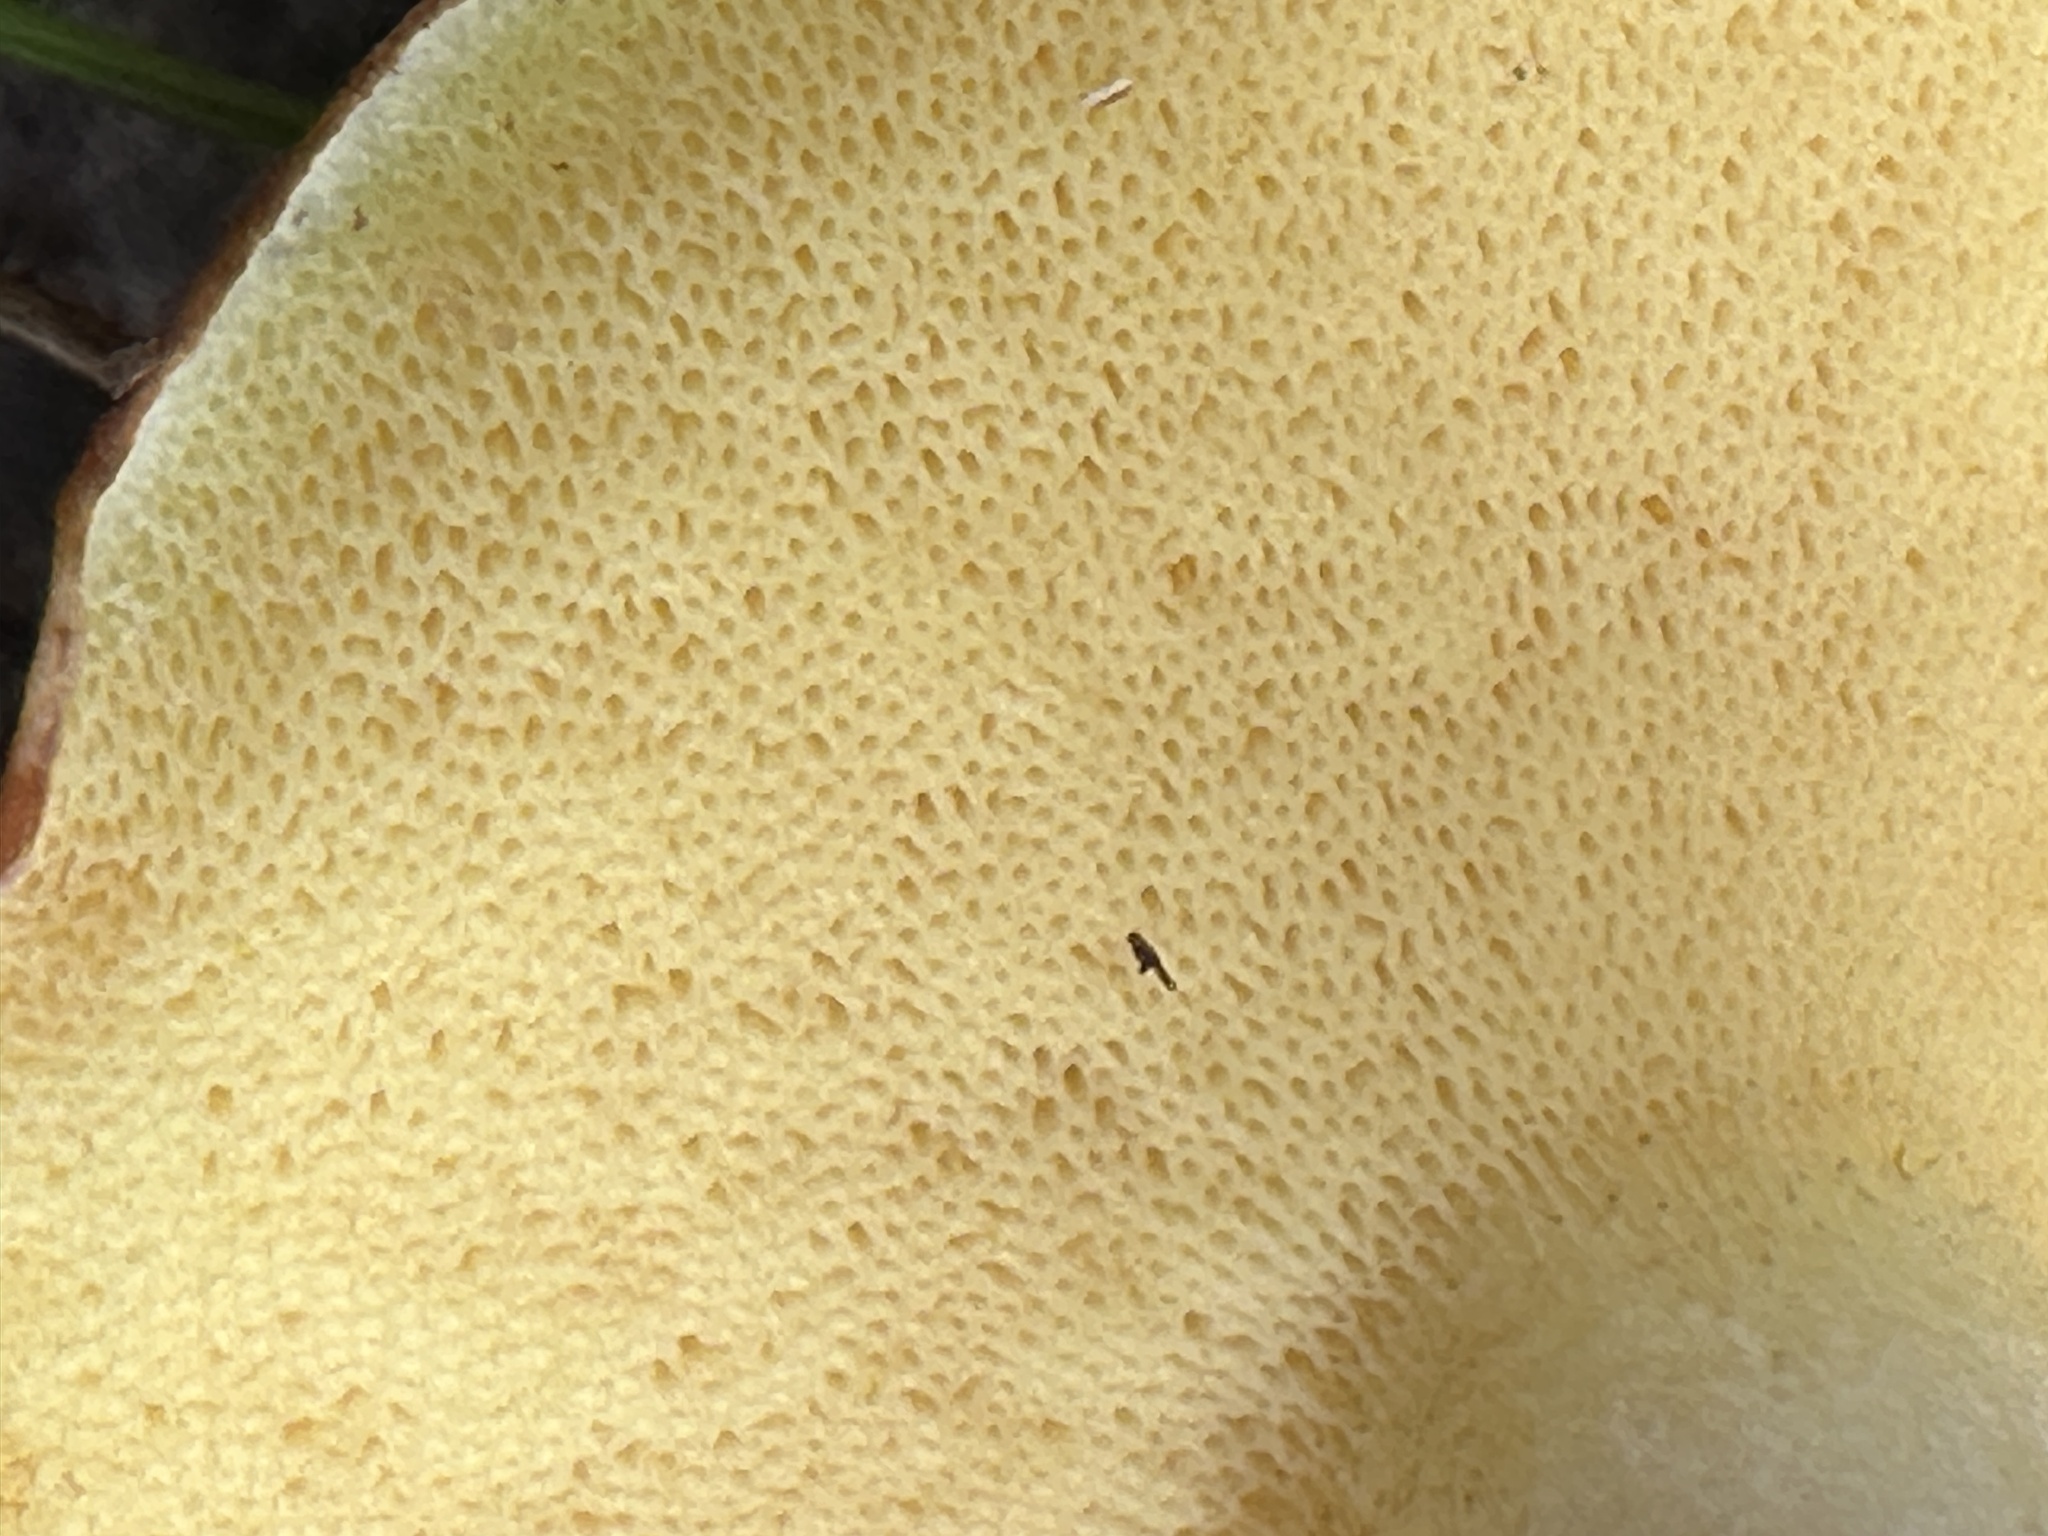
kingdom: Fungi
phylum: Basidiomycota
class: Agaricomycetes
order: Boletales
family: Suillaceae
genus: Fuscoboletinus
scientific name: Fuscoboletinus weaverae
